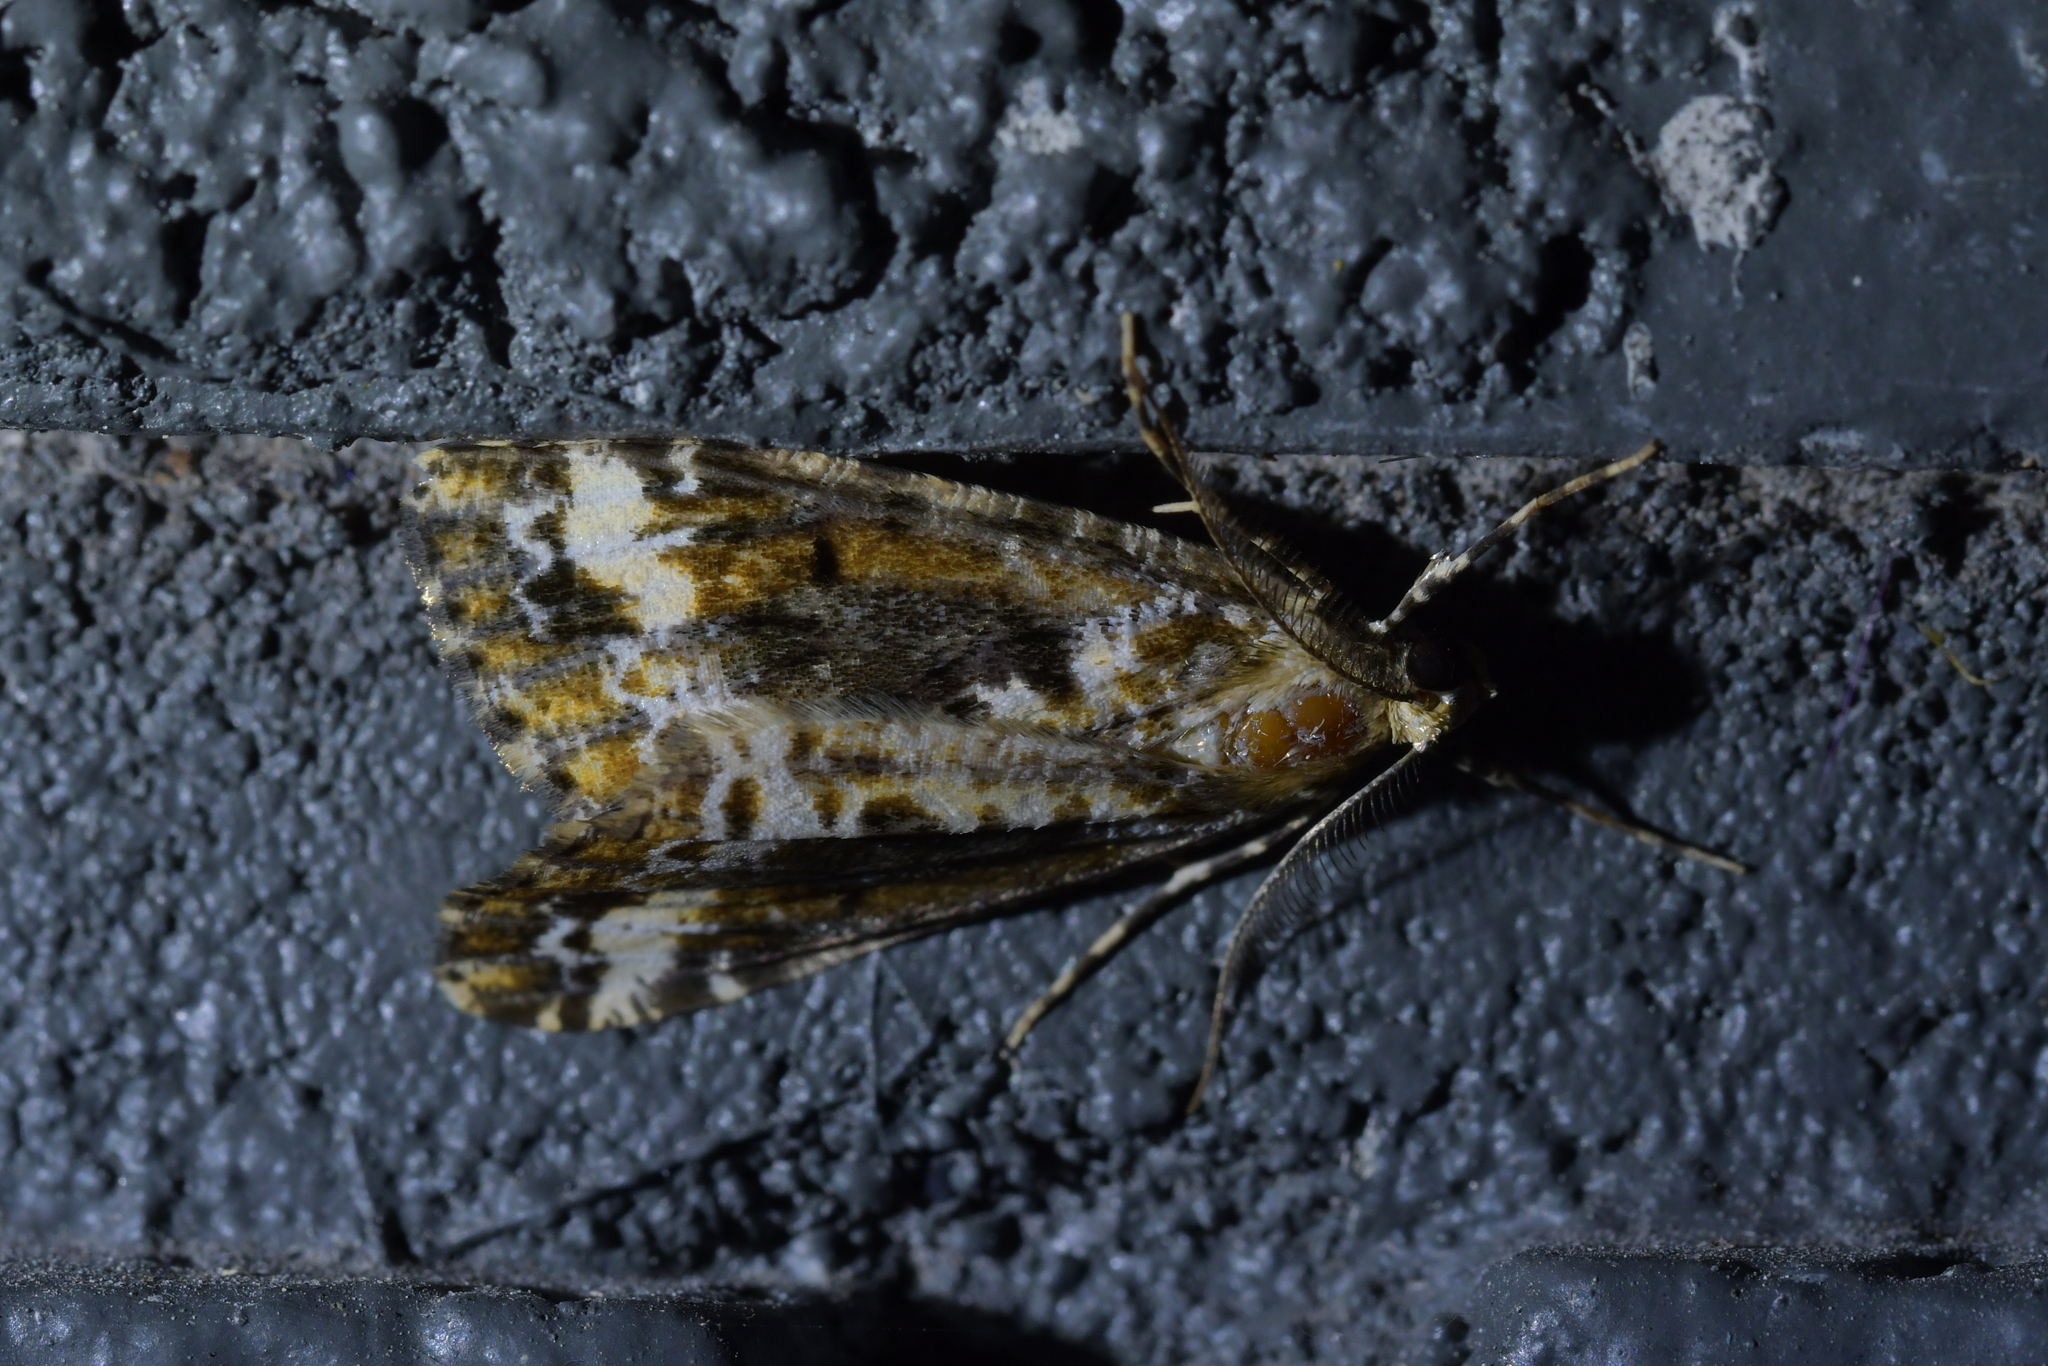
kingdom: Animalia
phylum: Arthropoda
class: Insecta
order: Lepidoptera
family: Geometridae
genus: Pseudocoremia
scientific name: Pseudocoremia leucelaea
